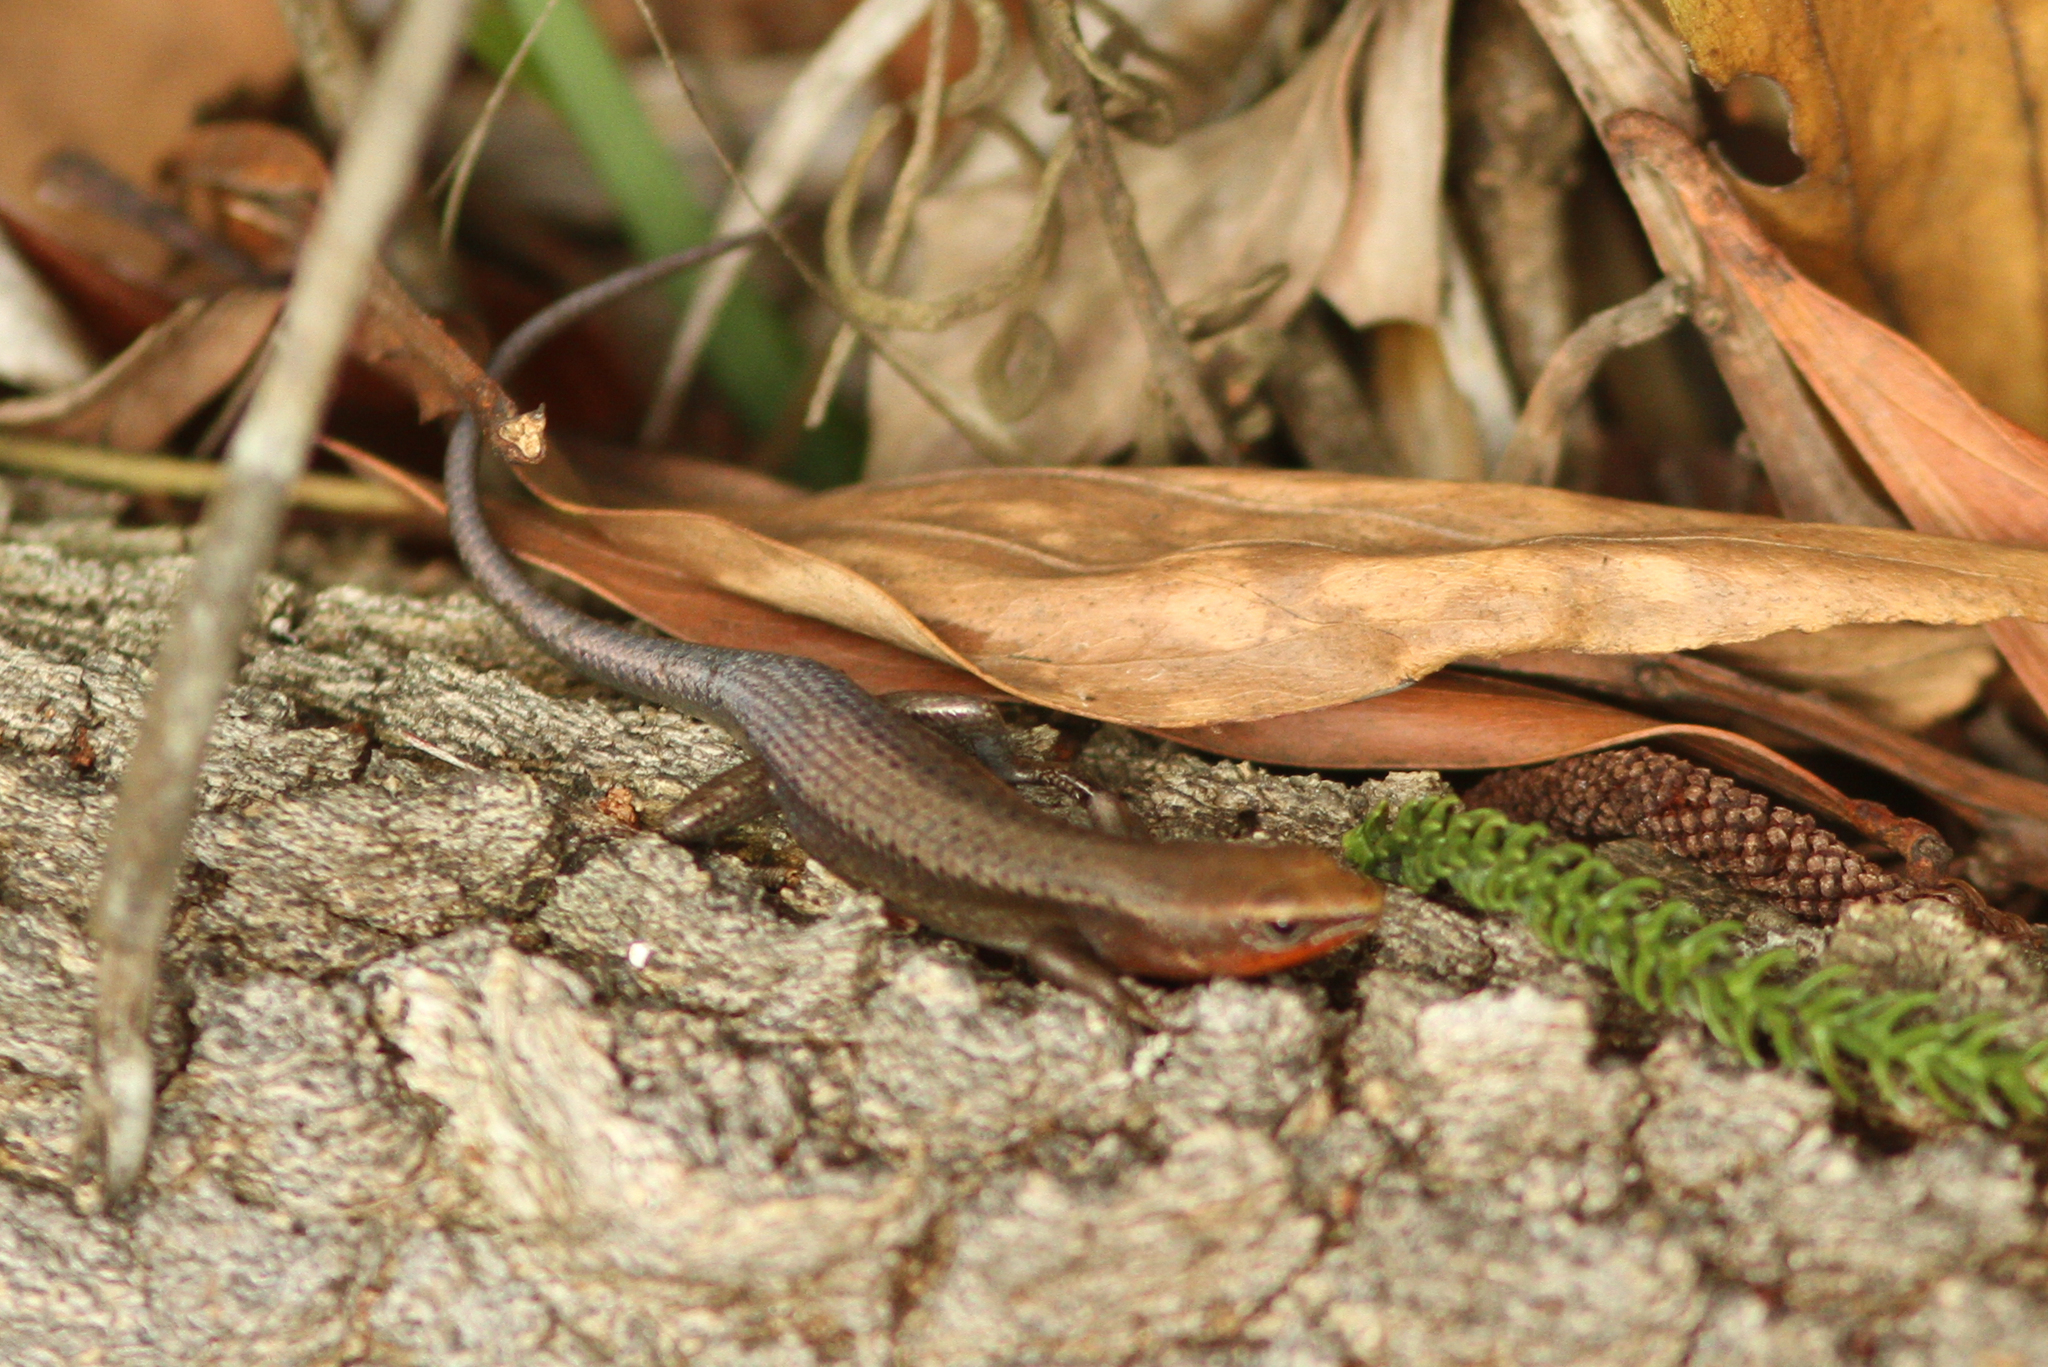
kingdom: Animalia
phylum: Chordata
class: Squamata
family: Scincidae
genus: Carlia
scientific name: Carlia rubrigularis
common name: Northern red-throated skink
